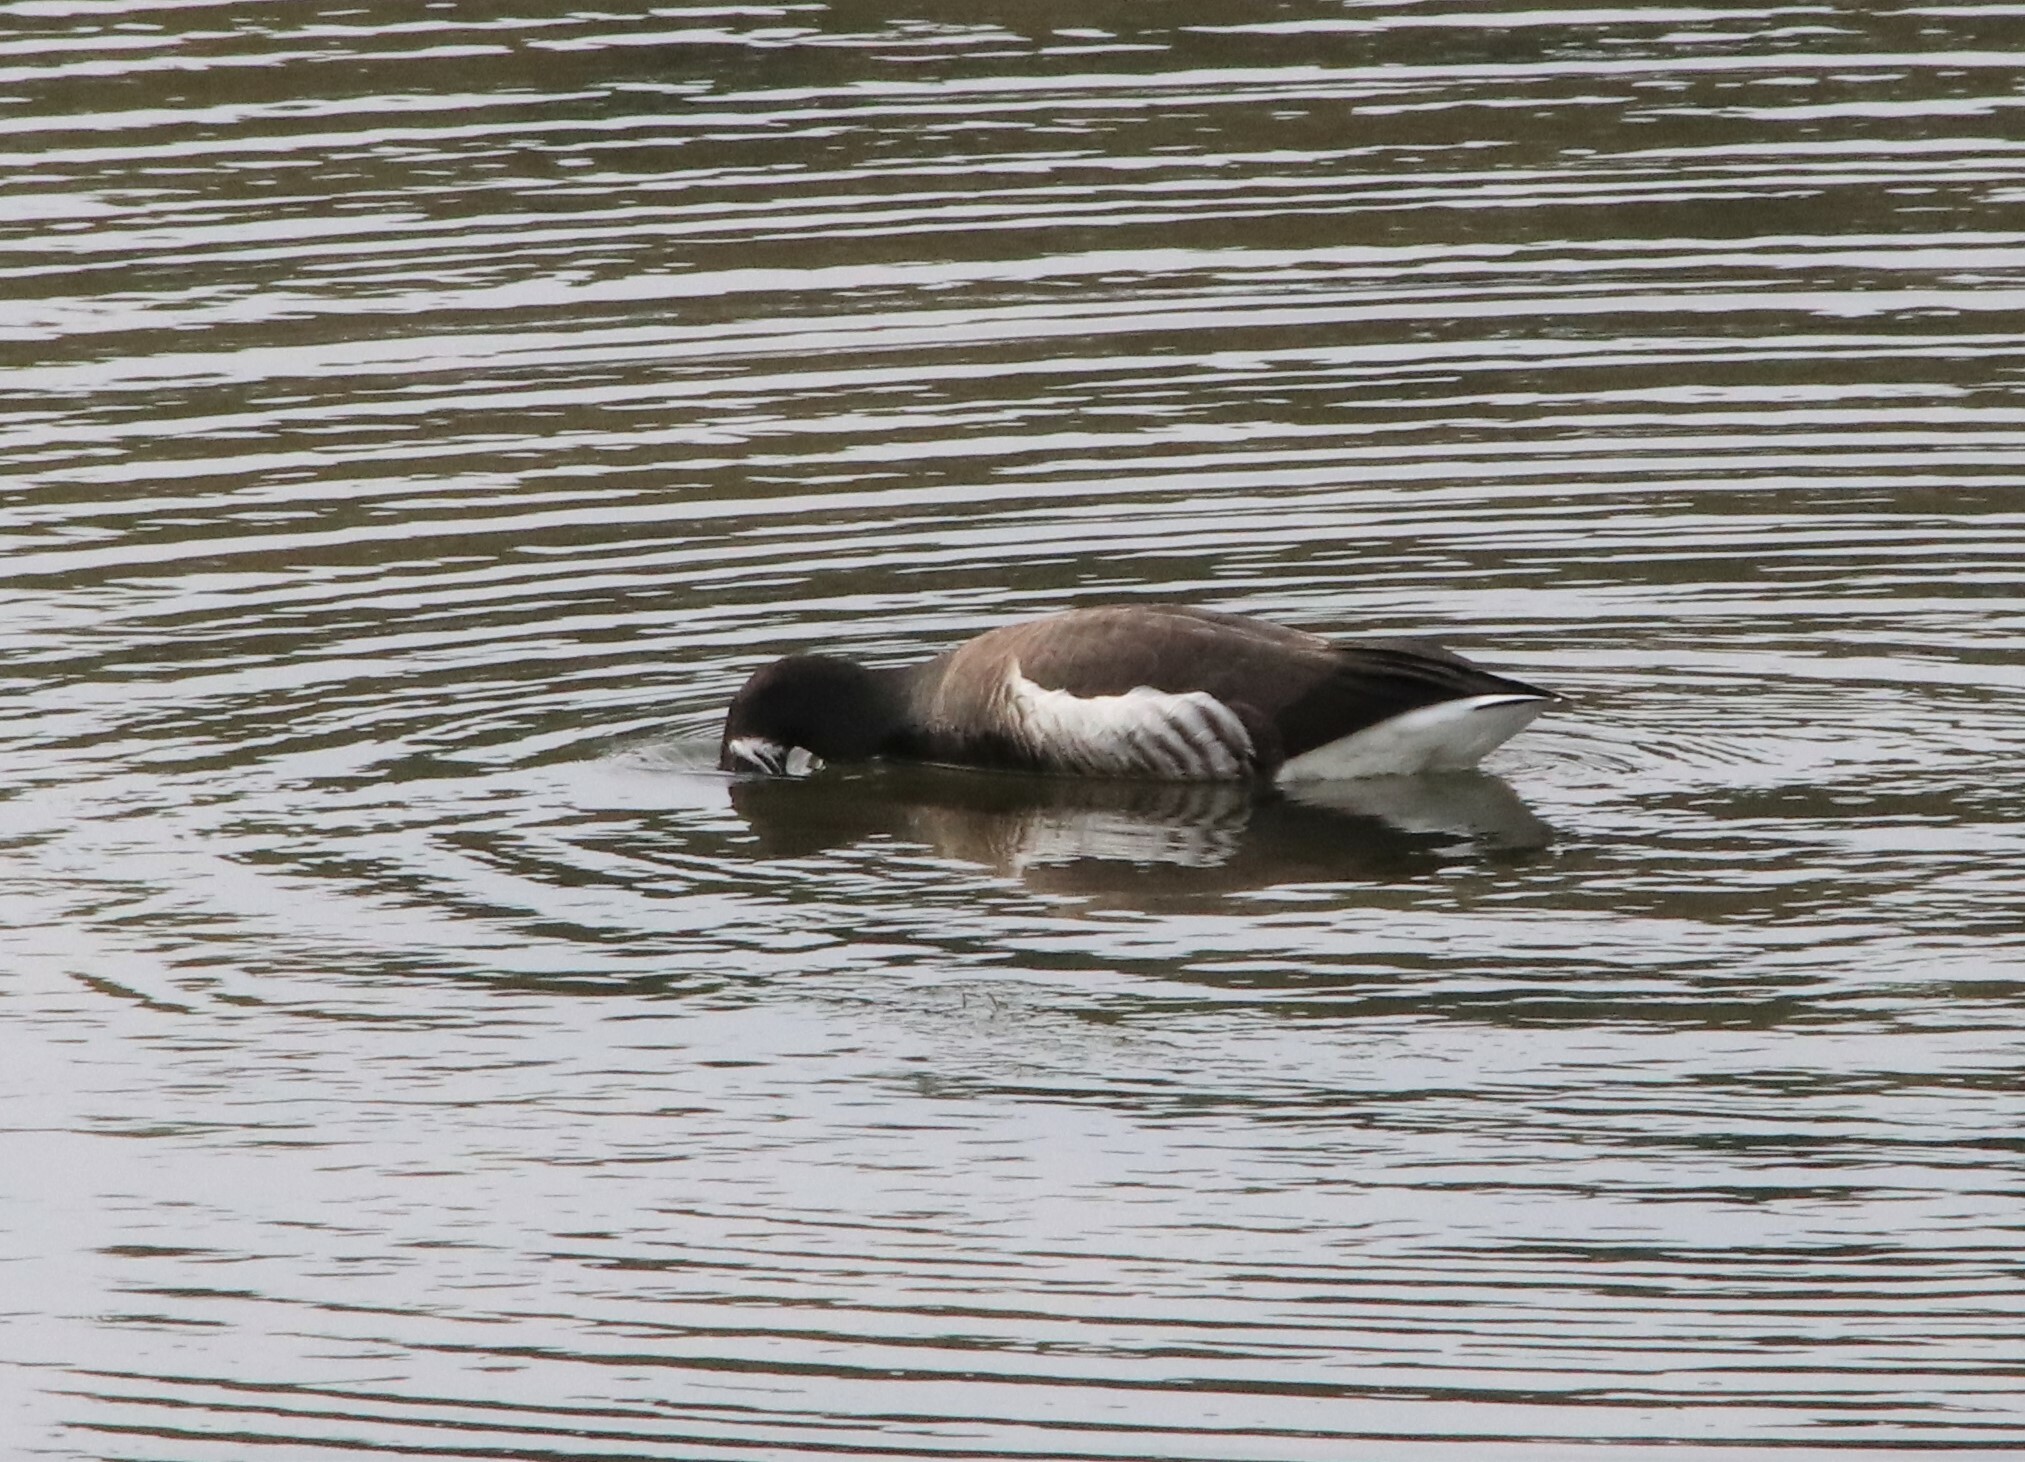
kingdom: Animalia
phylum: Chordata
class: Aves
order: Anseriformes
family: Anatidae
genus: Branta
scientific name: Branta bernicla
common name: Brant goose
